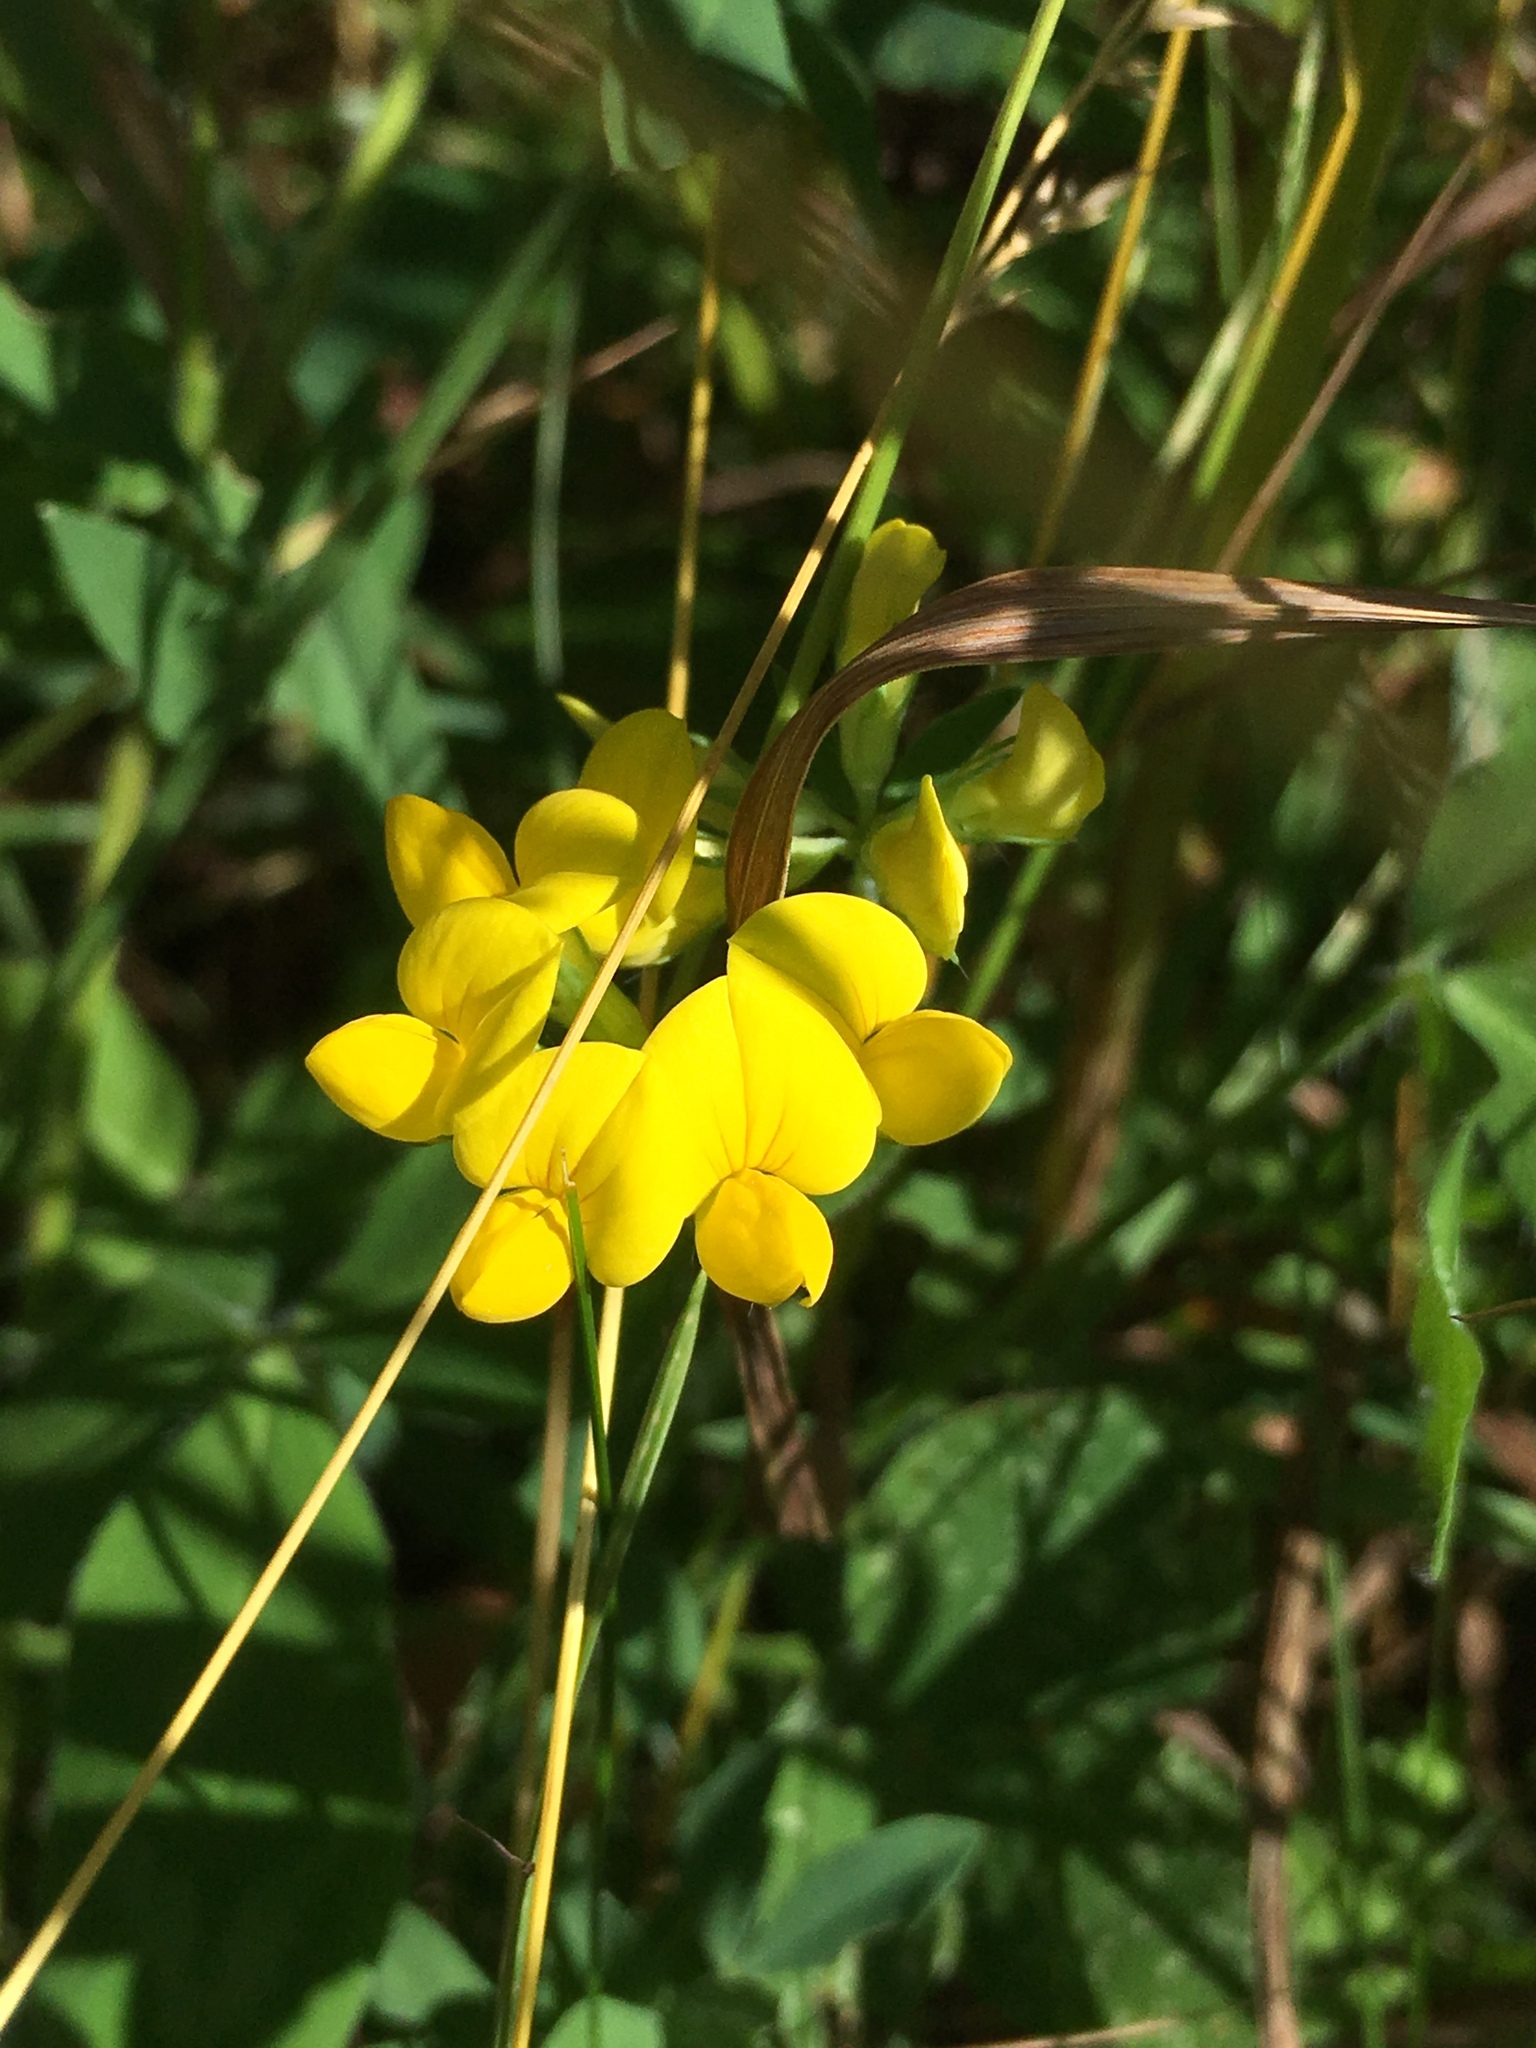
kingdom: Plantae
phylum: Tracheophyta
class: Magnoliopsida
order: Fabales
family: Fabaceae
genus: Lotus
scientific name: Lotus corniculatus
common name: Common bird's-foot-trefoil
